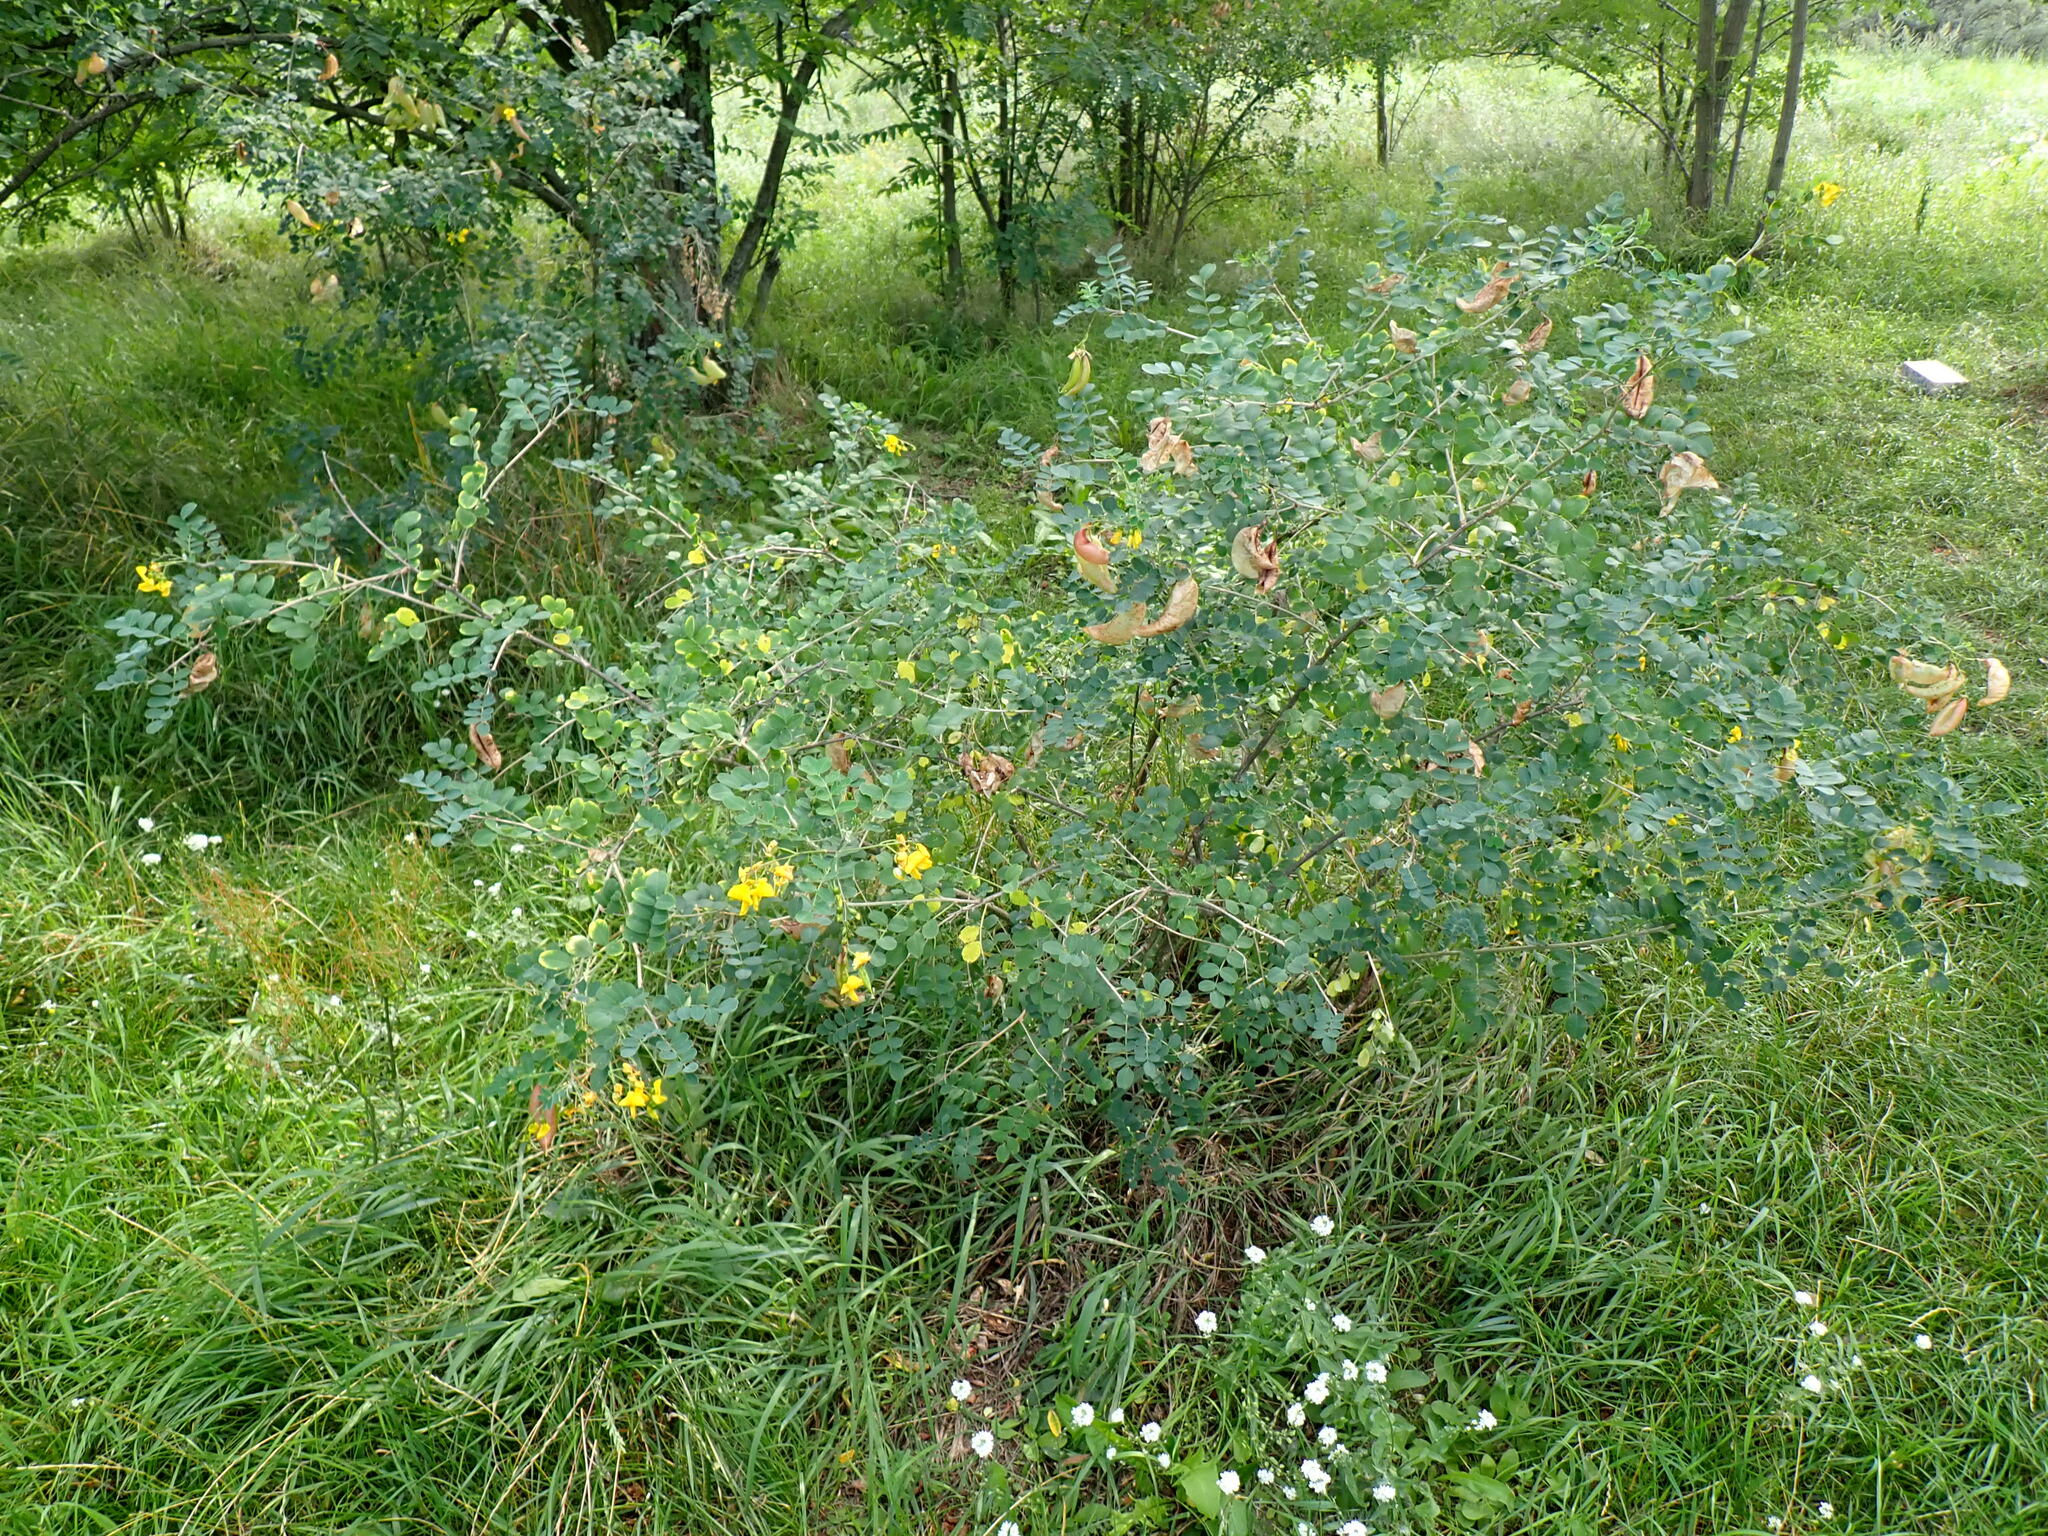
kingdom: Plantae
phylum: Tracheophyta
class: Magnoliopsida
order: Fabales
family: Fabaceae
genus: Colutea
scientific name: Colutea arborescens
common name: Bladder-senna
